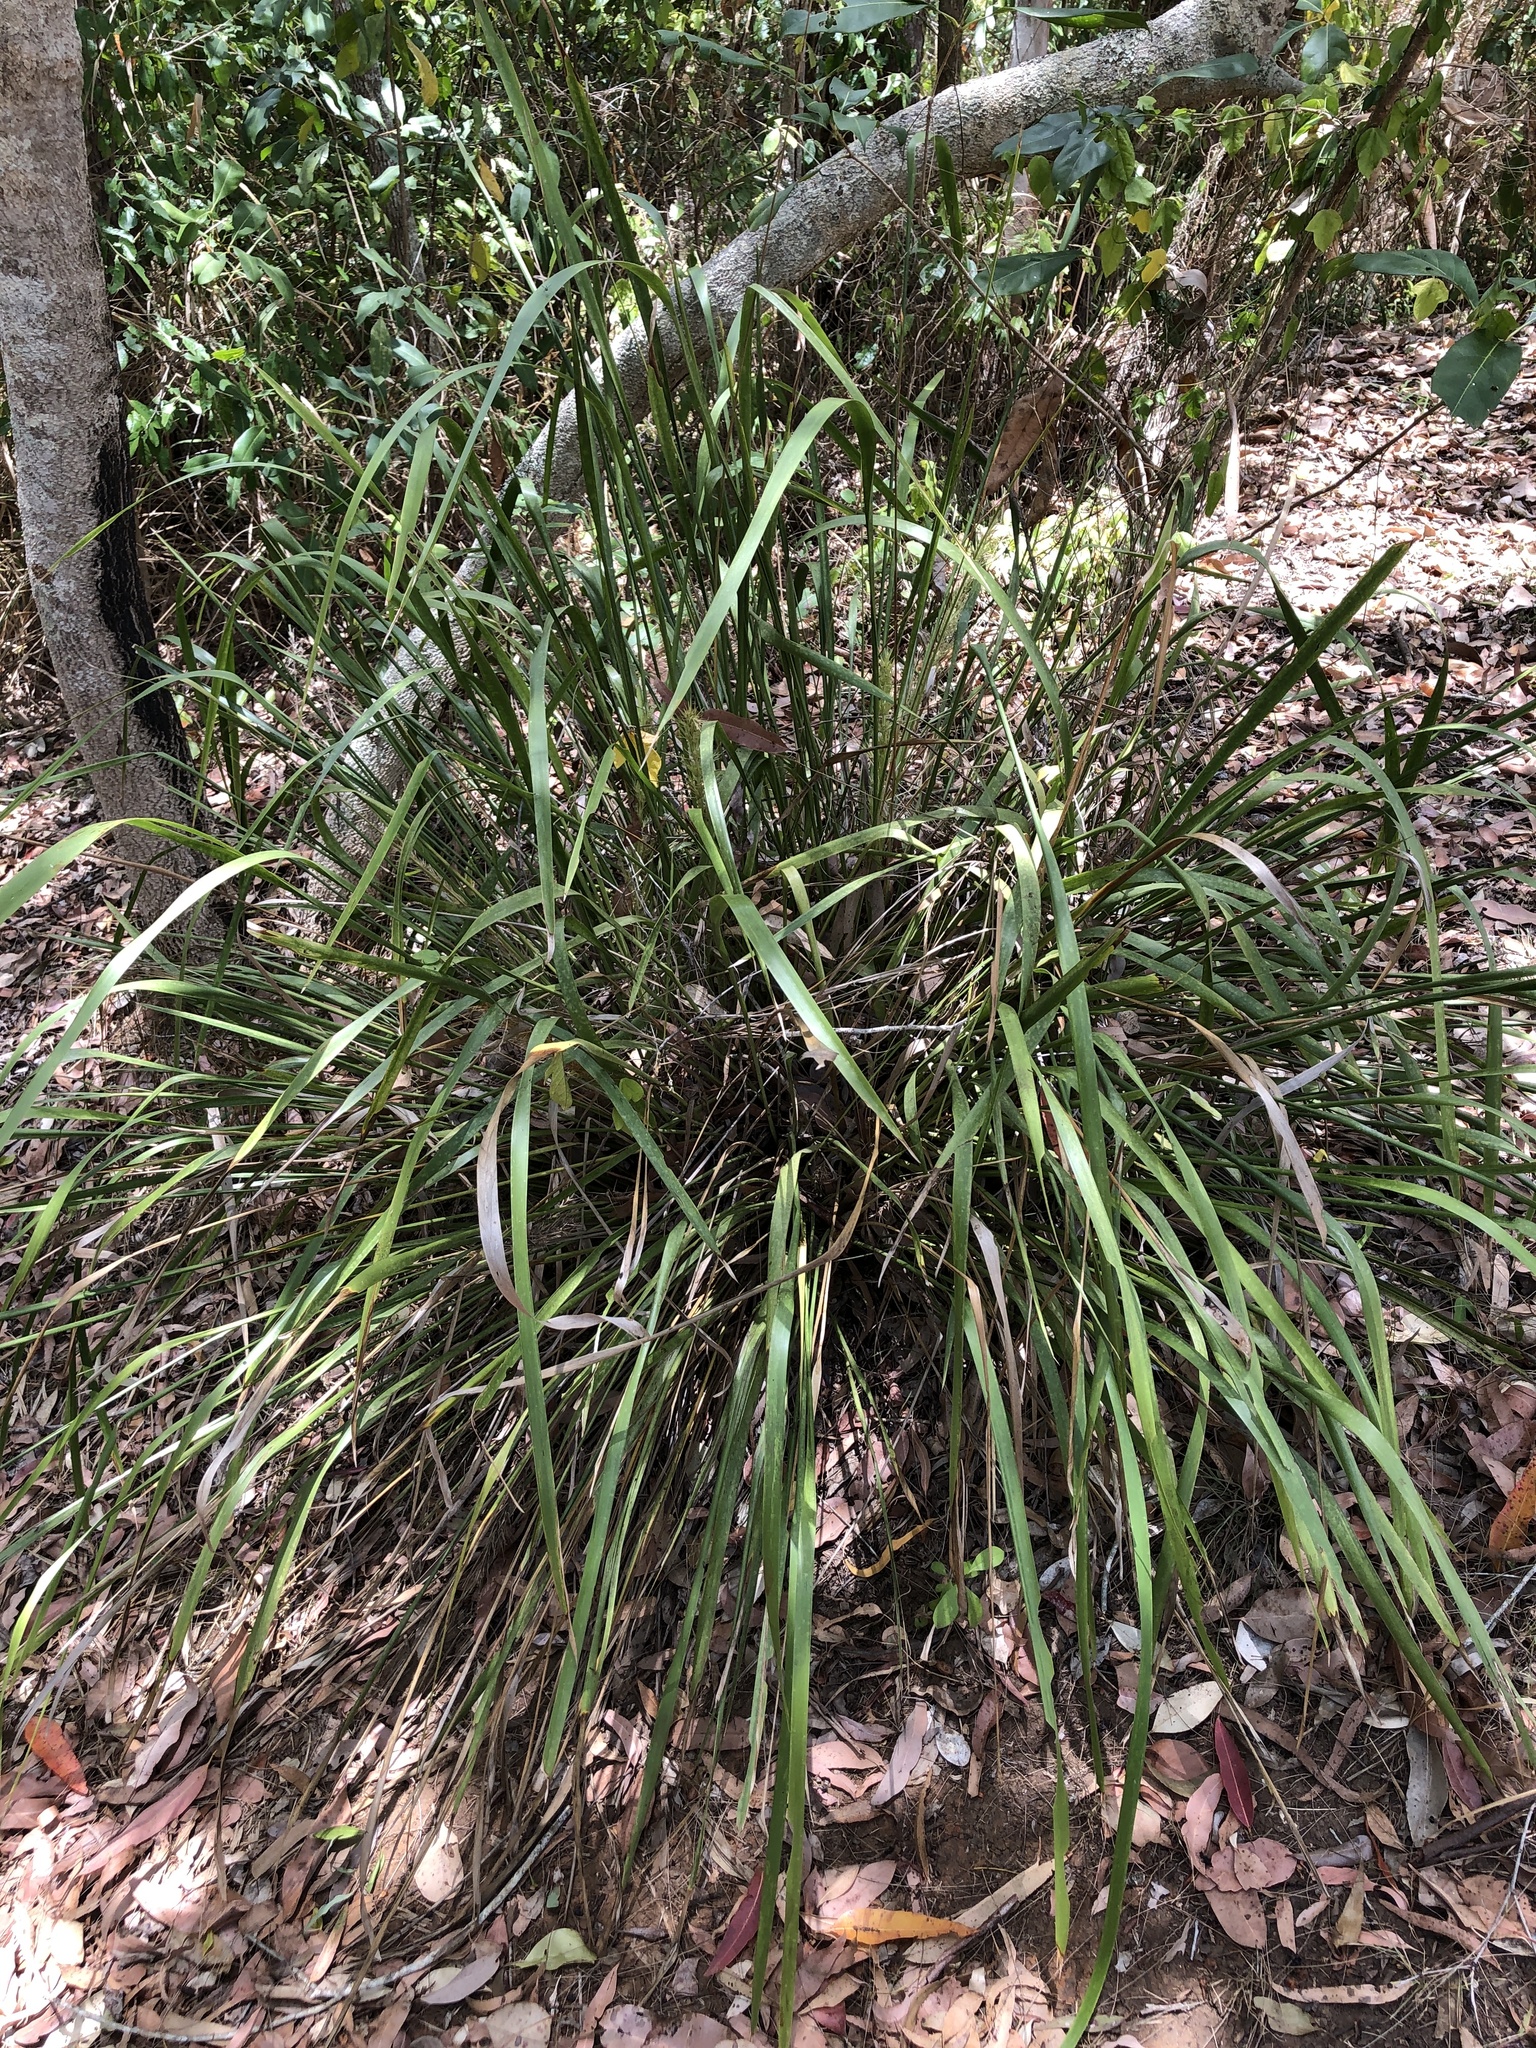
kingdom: Plantae
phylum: Tracheophyta
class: Liliopsida
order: Asparagales
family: Asparagaceae
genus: Lomandra
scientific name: Lomandra hystrix
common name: Creek mat-rush
